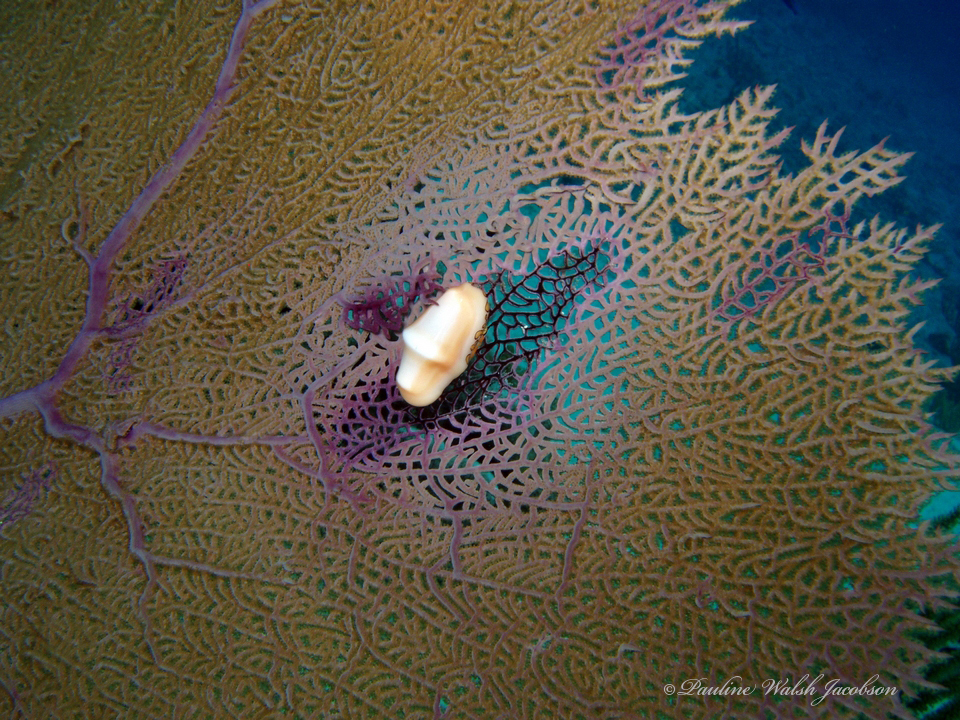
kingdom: Animalia
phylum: Mollusca
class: Gastropoda
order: Littorinimorpha
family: Ovulidae
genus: Cyphoma
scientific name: Cyphoma gibbosum
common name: Flamingo tongue
